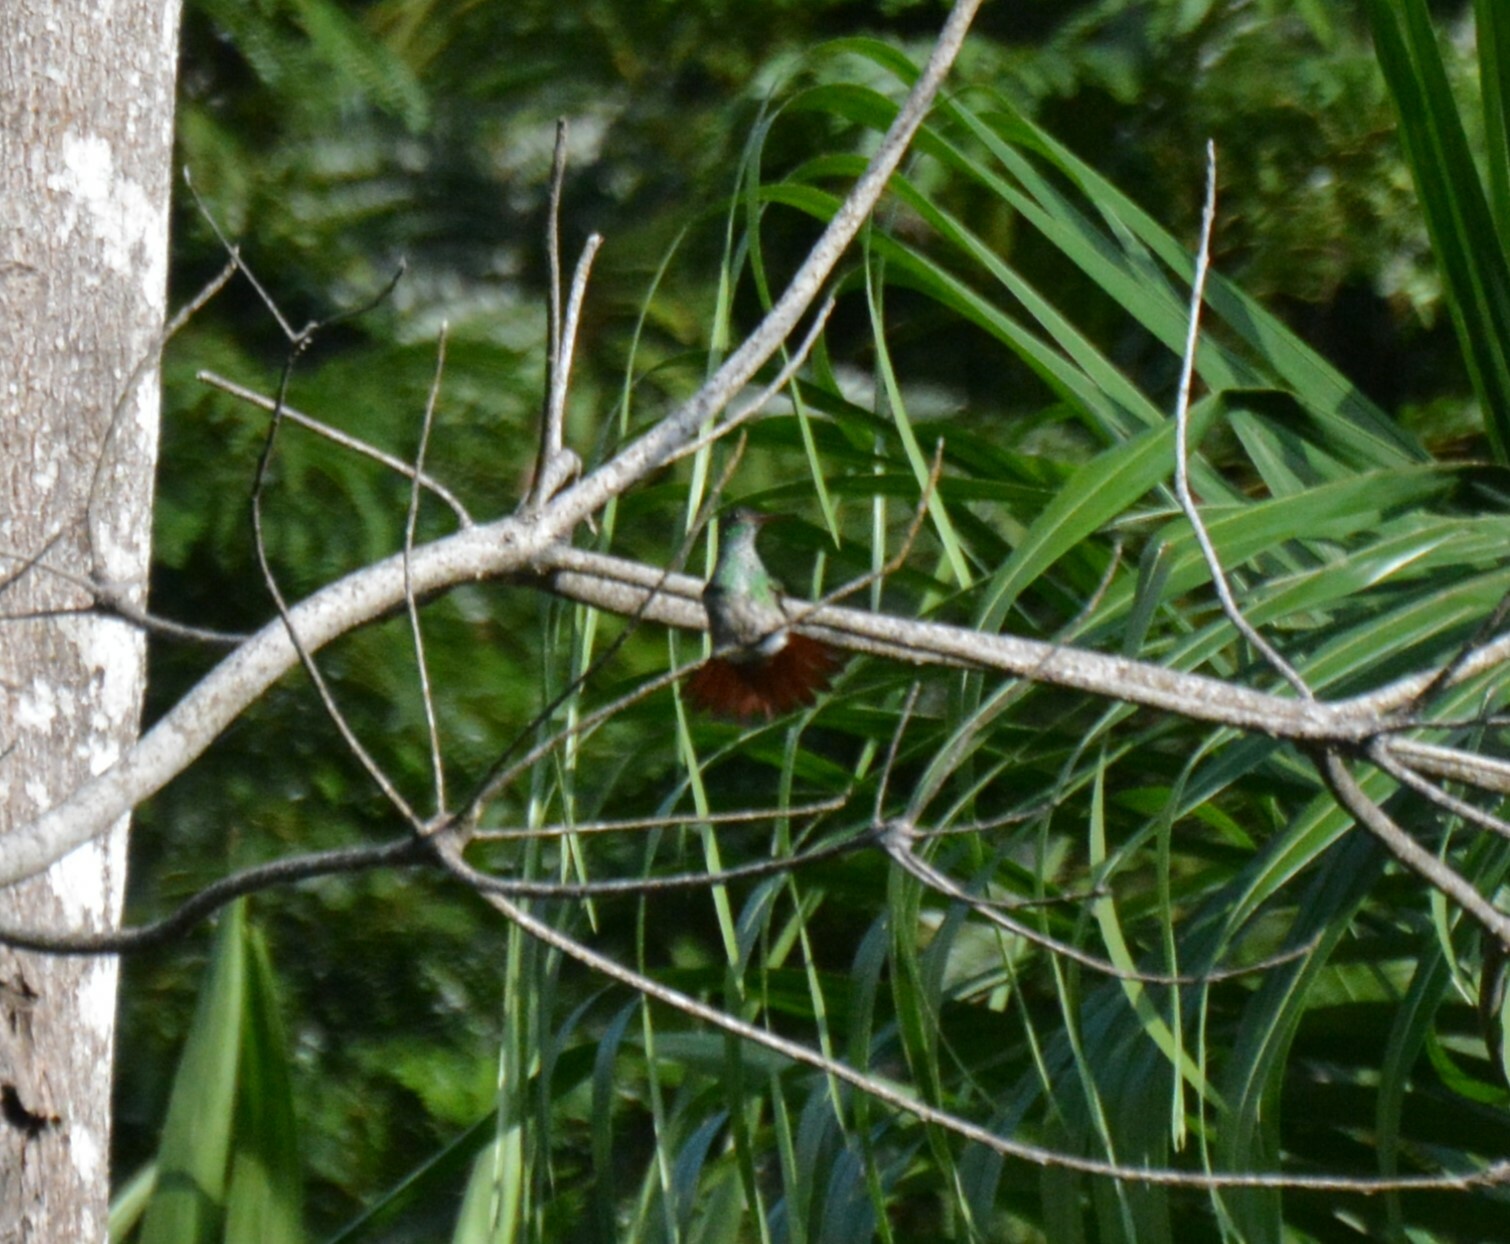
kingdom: Animalia
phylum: Chordata
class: Aves
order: Apodiformes
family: Trochilidae
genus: Amazilia
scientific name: Amazilia tzacatl
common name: Rufous-tailed hummingbird
